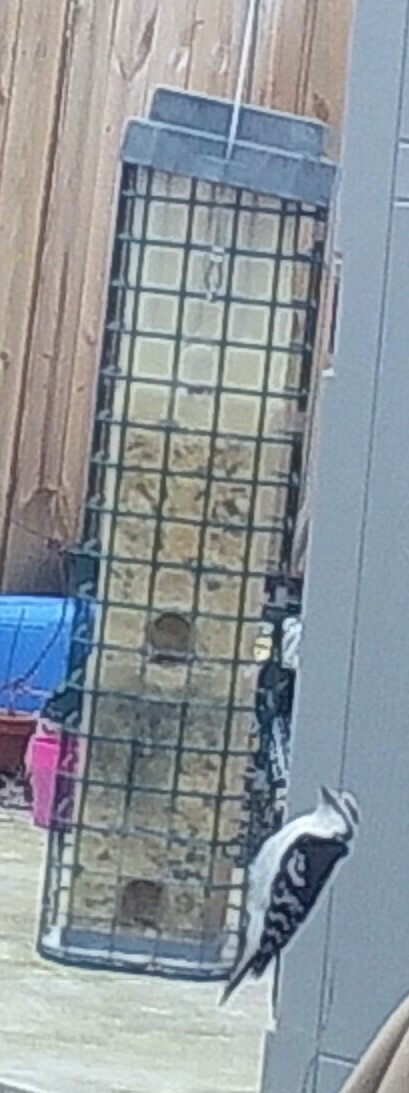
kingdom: Animalia
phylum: Chordata
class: Aves
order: Piciformes
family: Picidae
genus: Dryobates
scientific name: Dryobates pubescens
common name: Downy woodpecker
